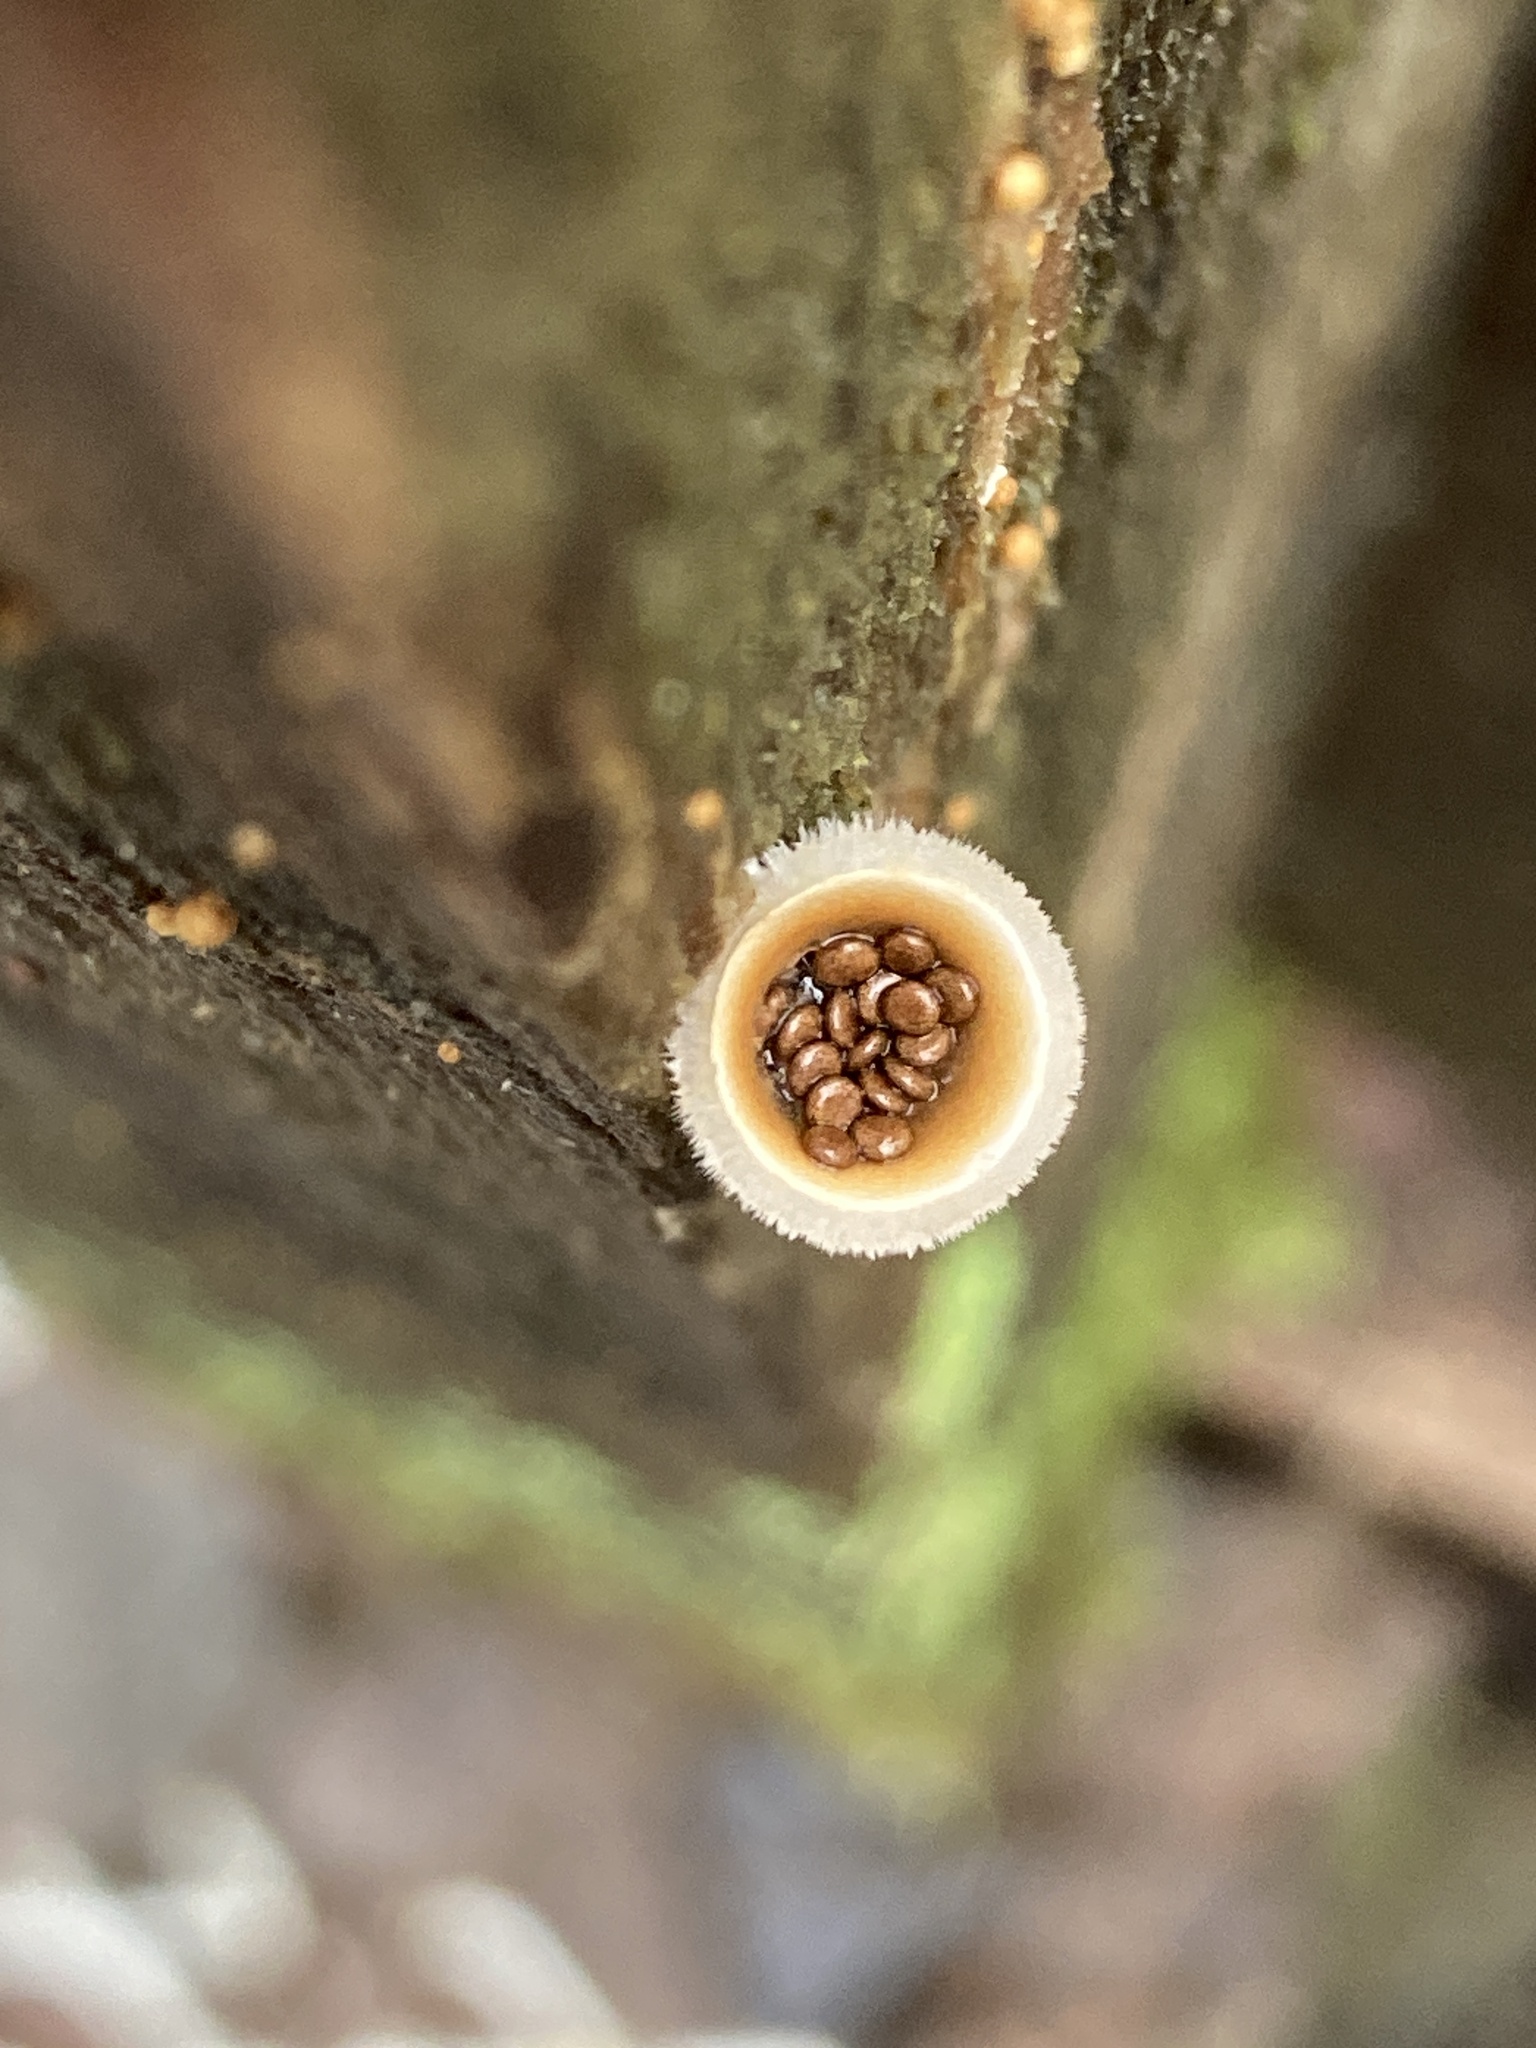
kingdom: Fungi
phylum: Basidiomycota
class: Agaricomycetes
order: Agaricales
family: Agaricaceae
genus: Nidula
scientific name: Nidula niveotomentosa
